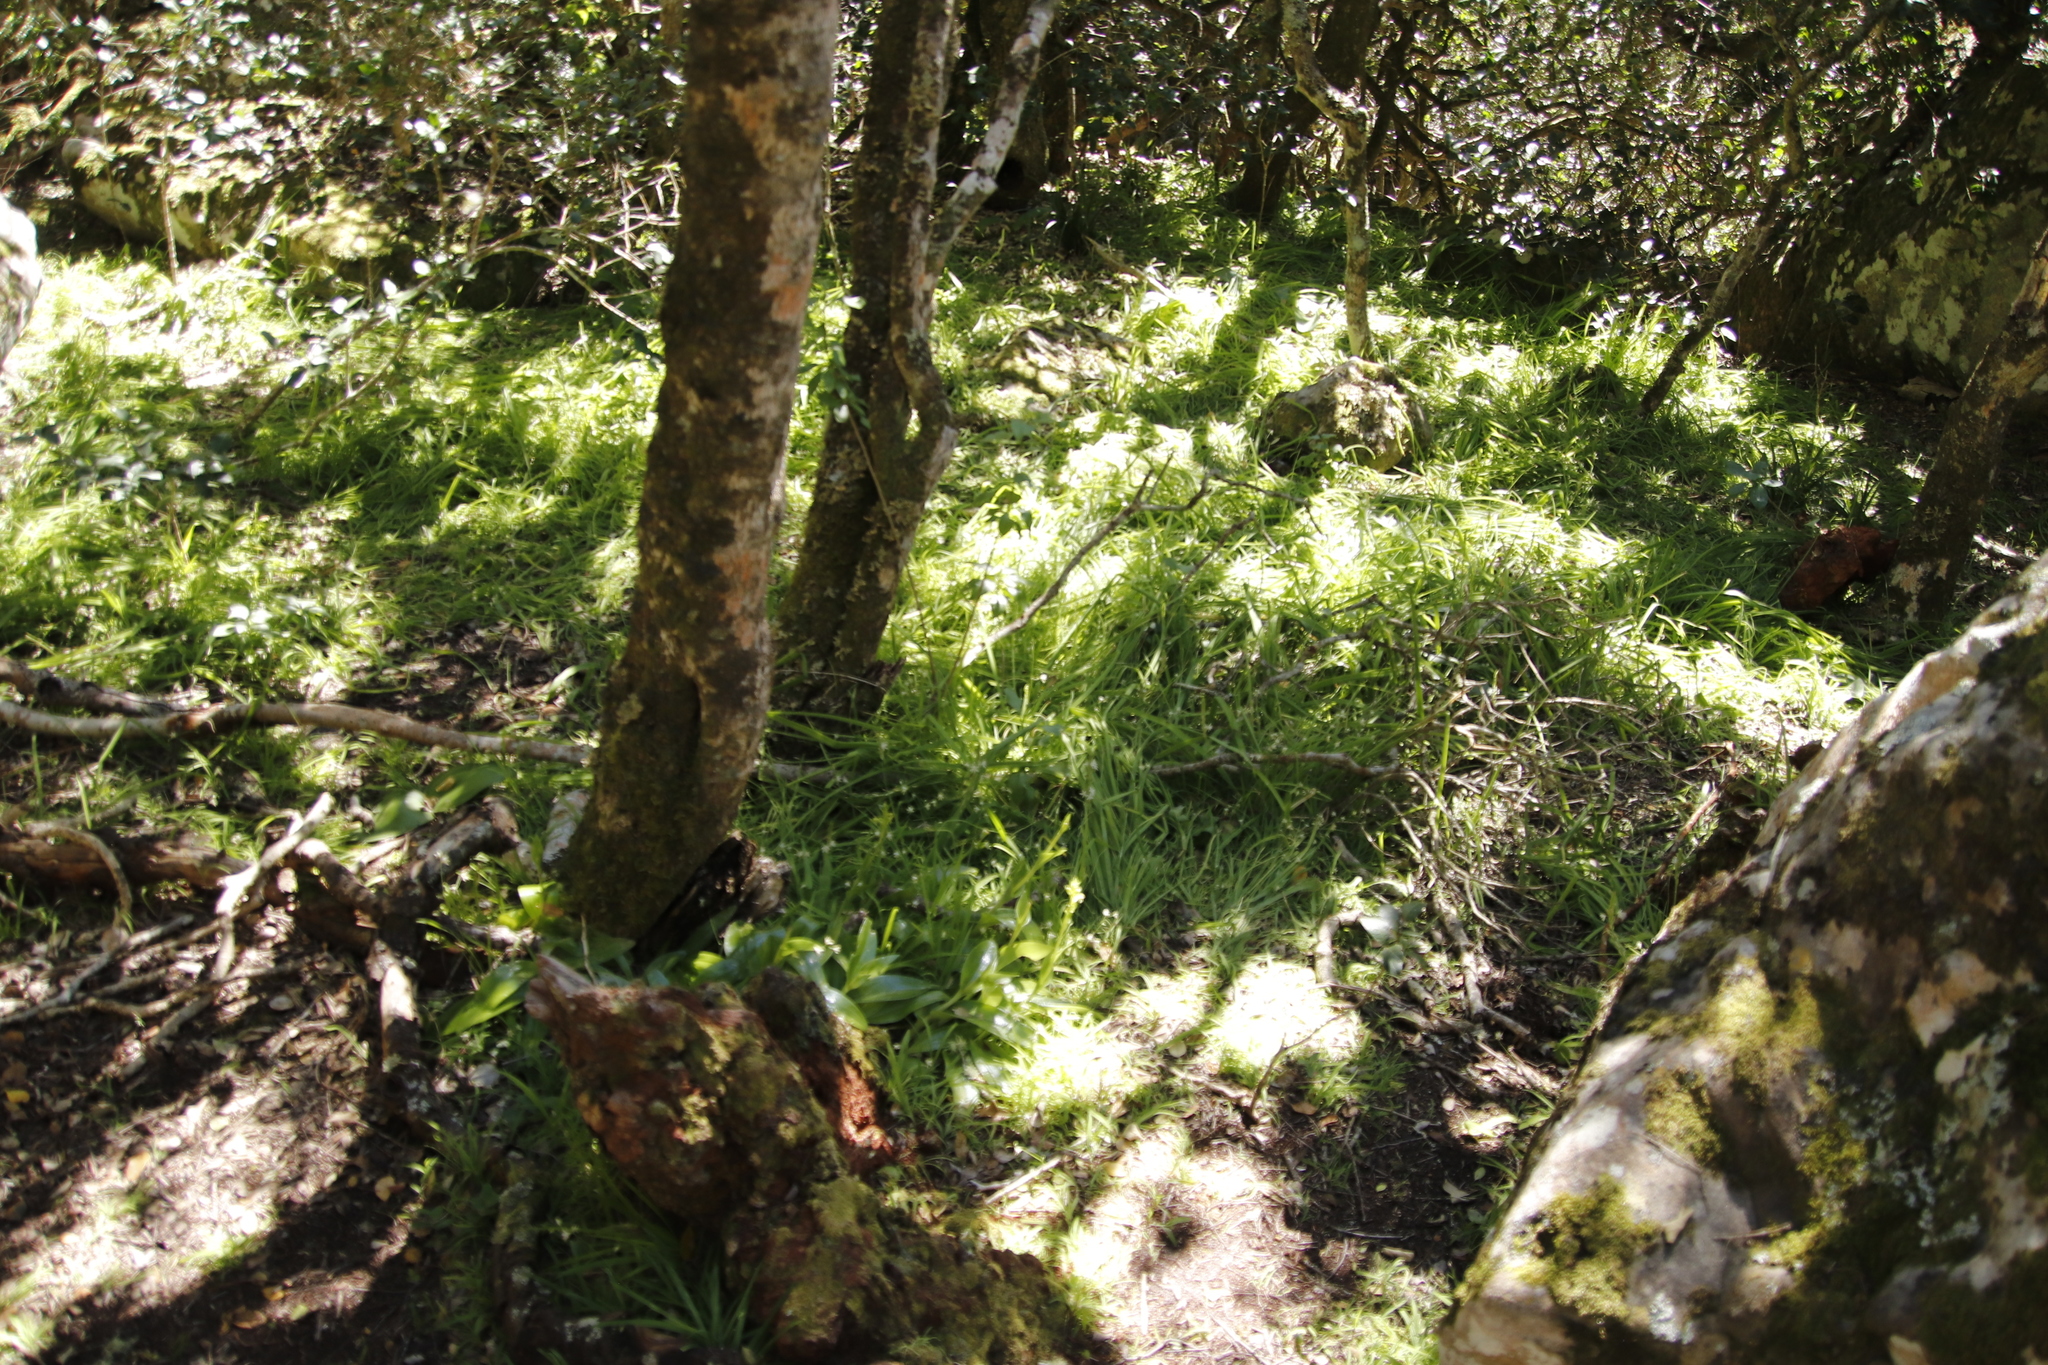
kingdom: Plantae
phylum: Tracheophyta
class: Liliopsida
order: Asparagales
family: Orchidaceae
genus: Satyrium
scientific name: Satyrium odorum
